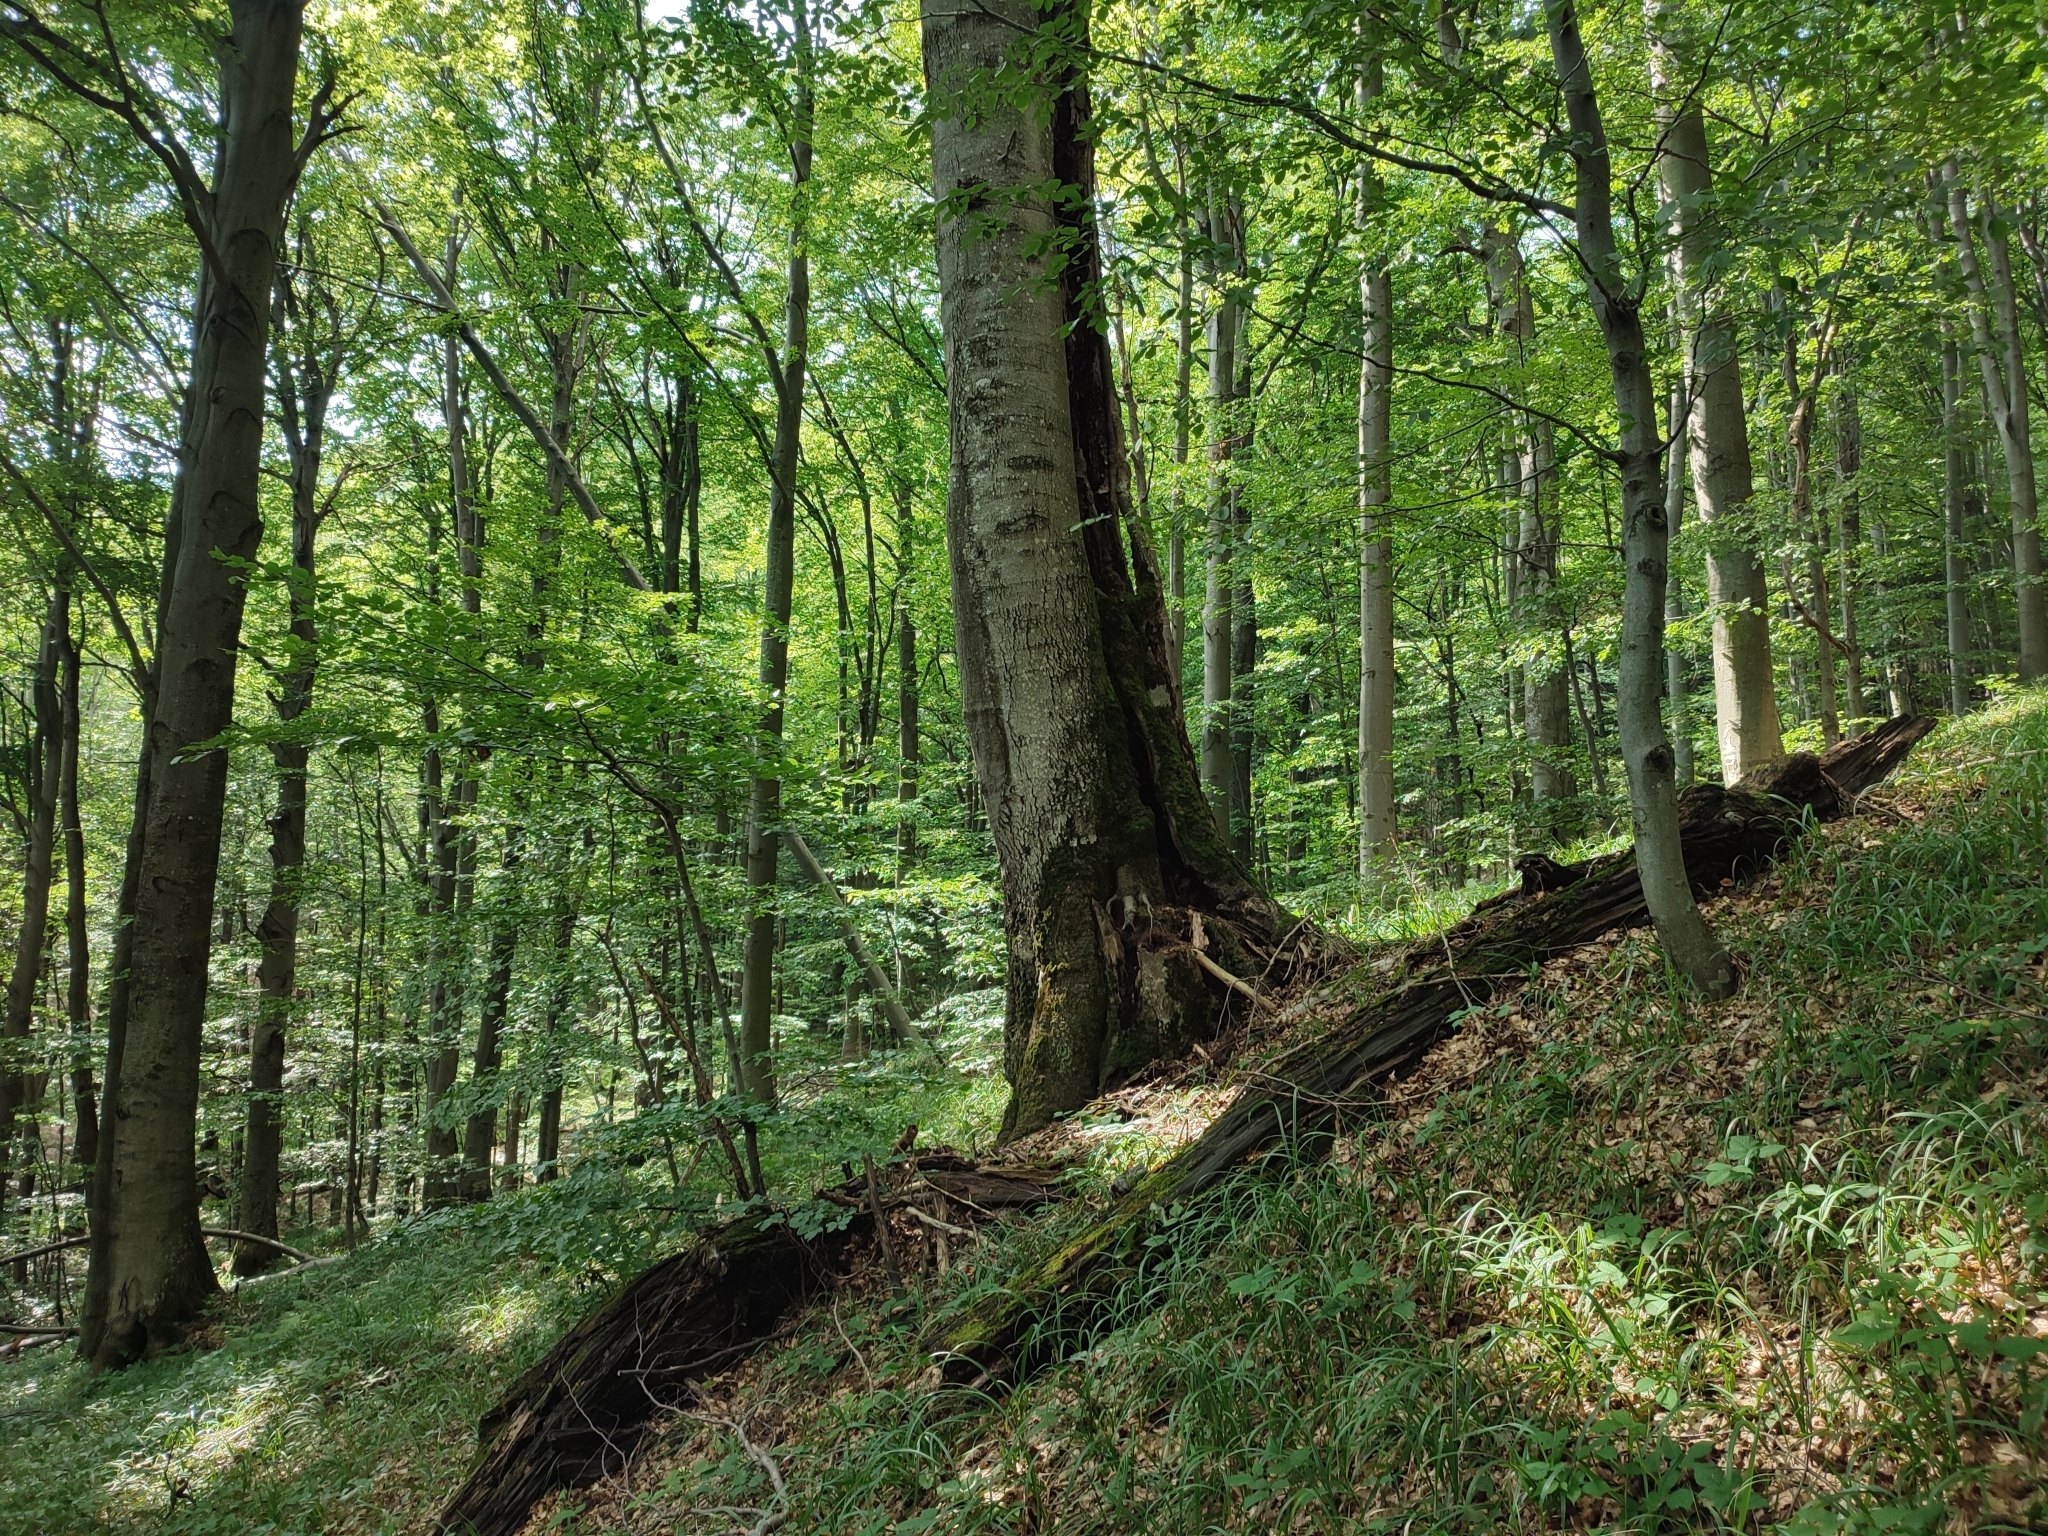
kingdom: Plantae
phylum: Tracheophyta
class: Magnoliopsida
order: Fagales
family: Fagaceae
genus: Fagus
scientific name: Fagus sylvatica
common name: Beech
